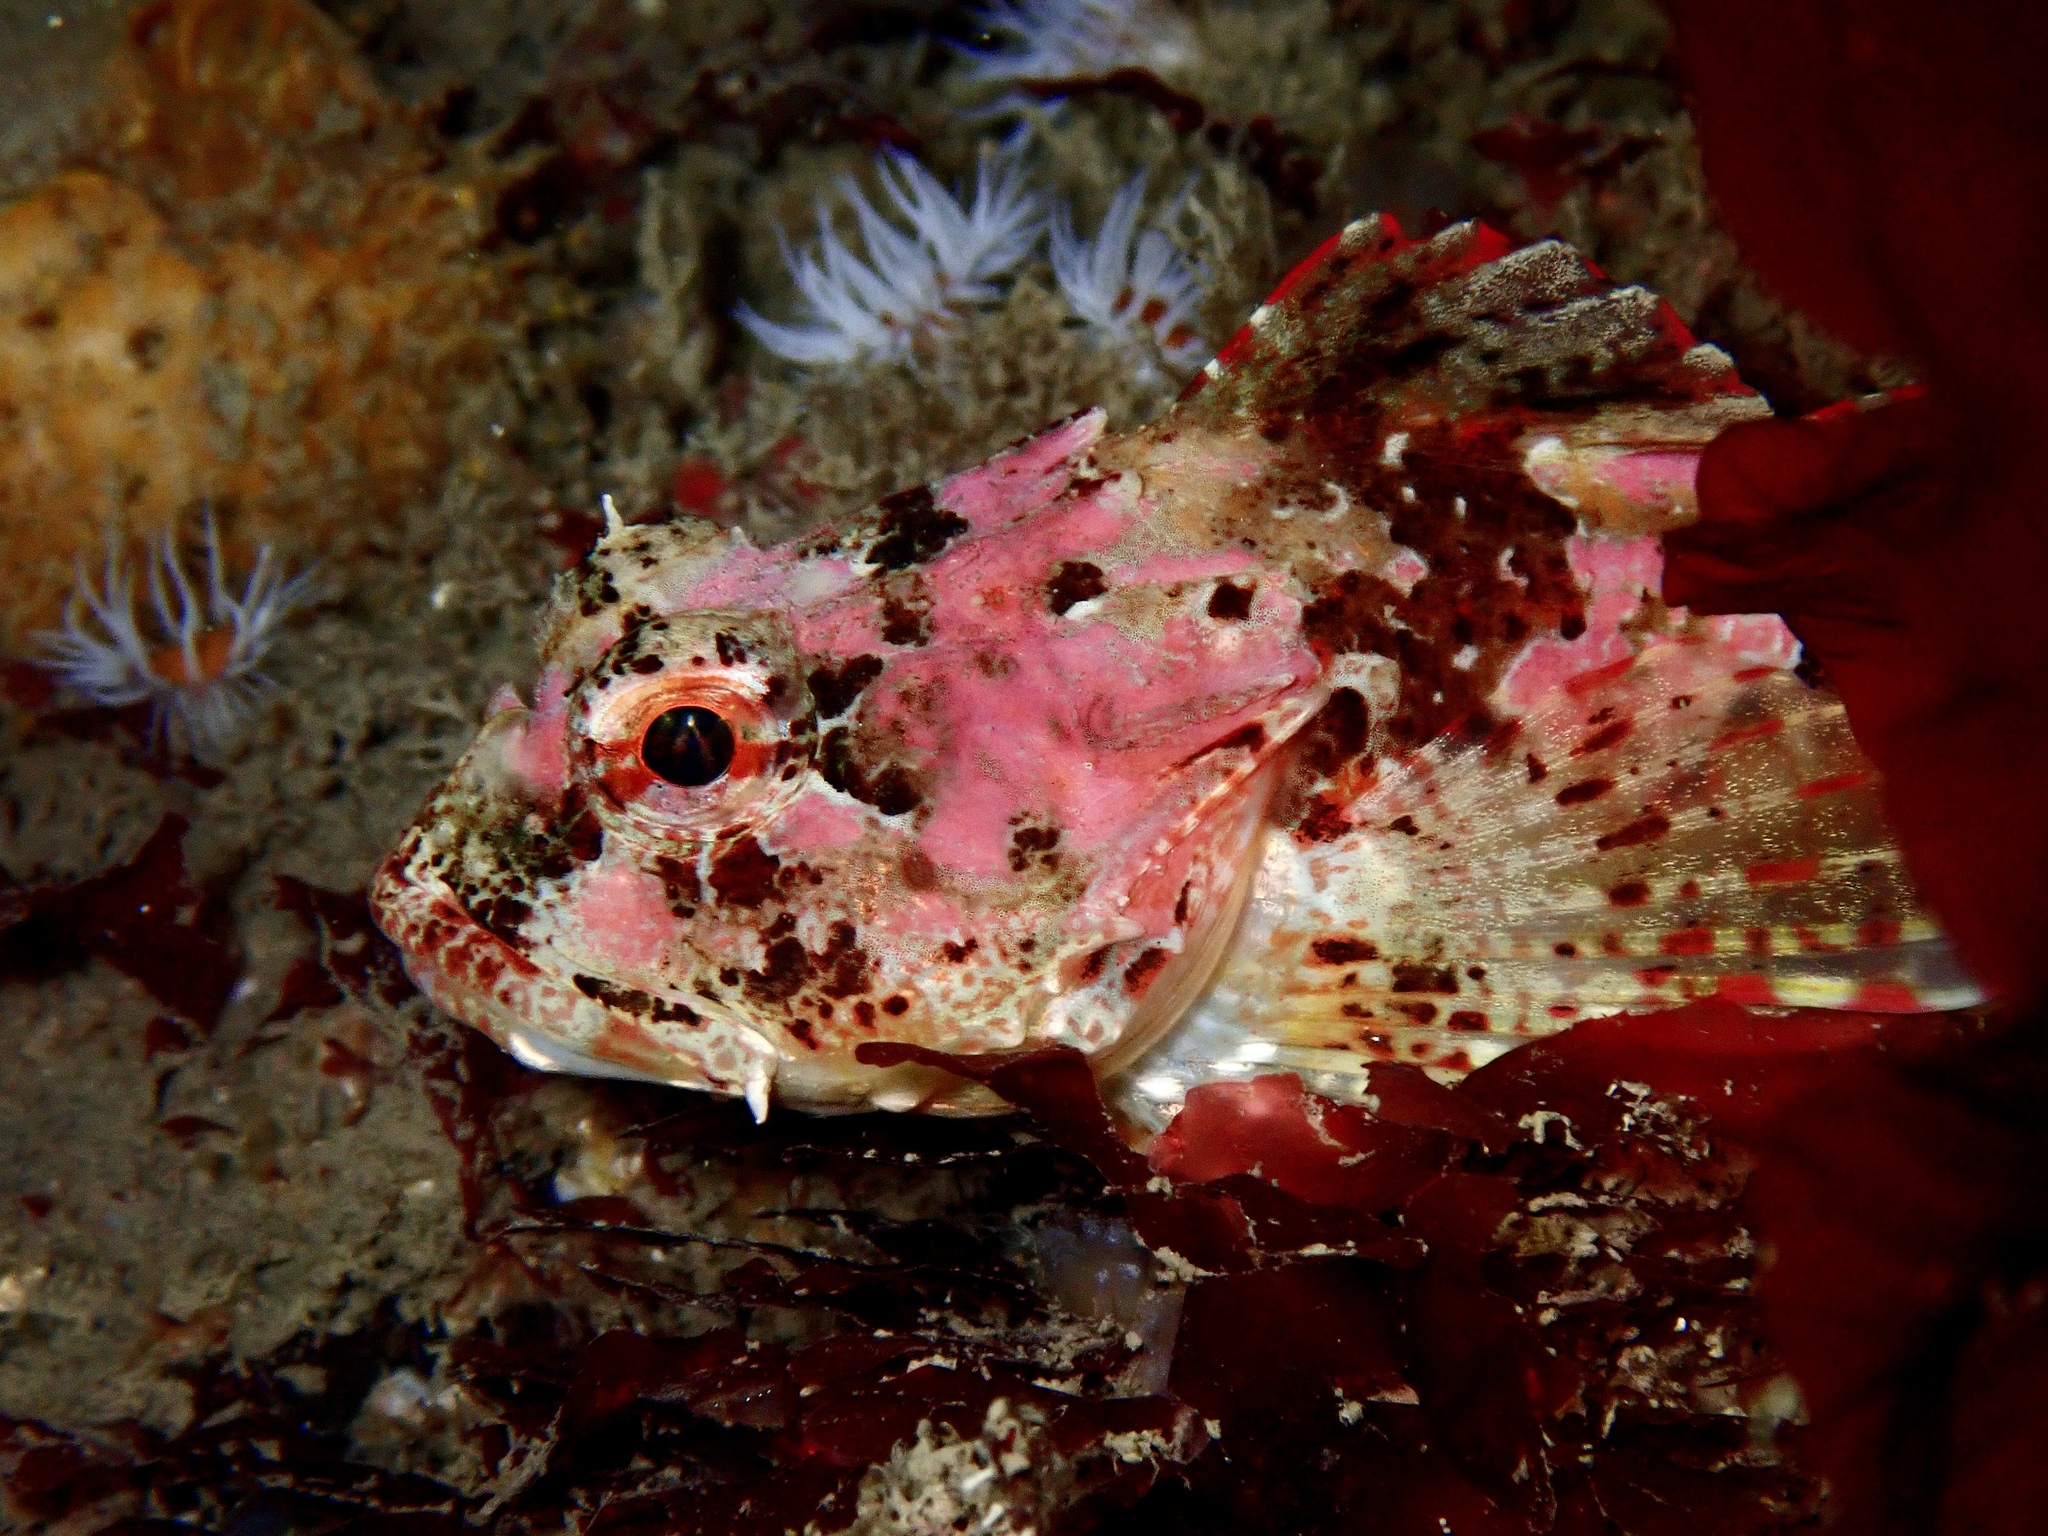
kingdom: Animalia
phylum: Chordata
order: Scorpaeniformes
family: Cottidae
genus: Taurulus
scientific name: Taurulus bubalis
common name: Sea scorpion
